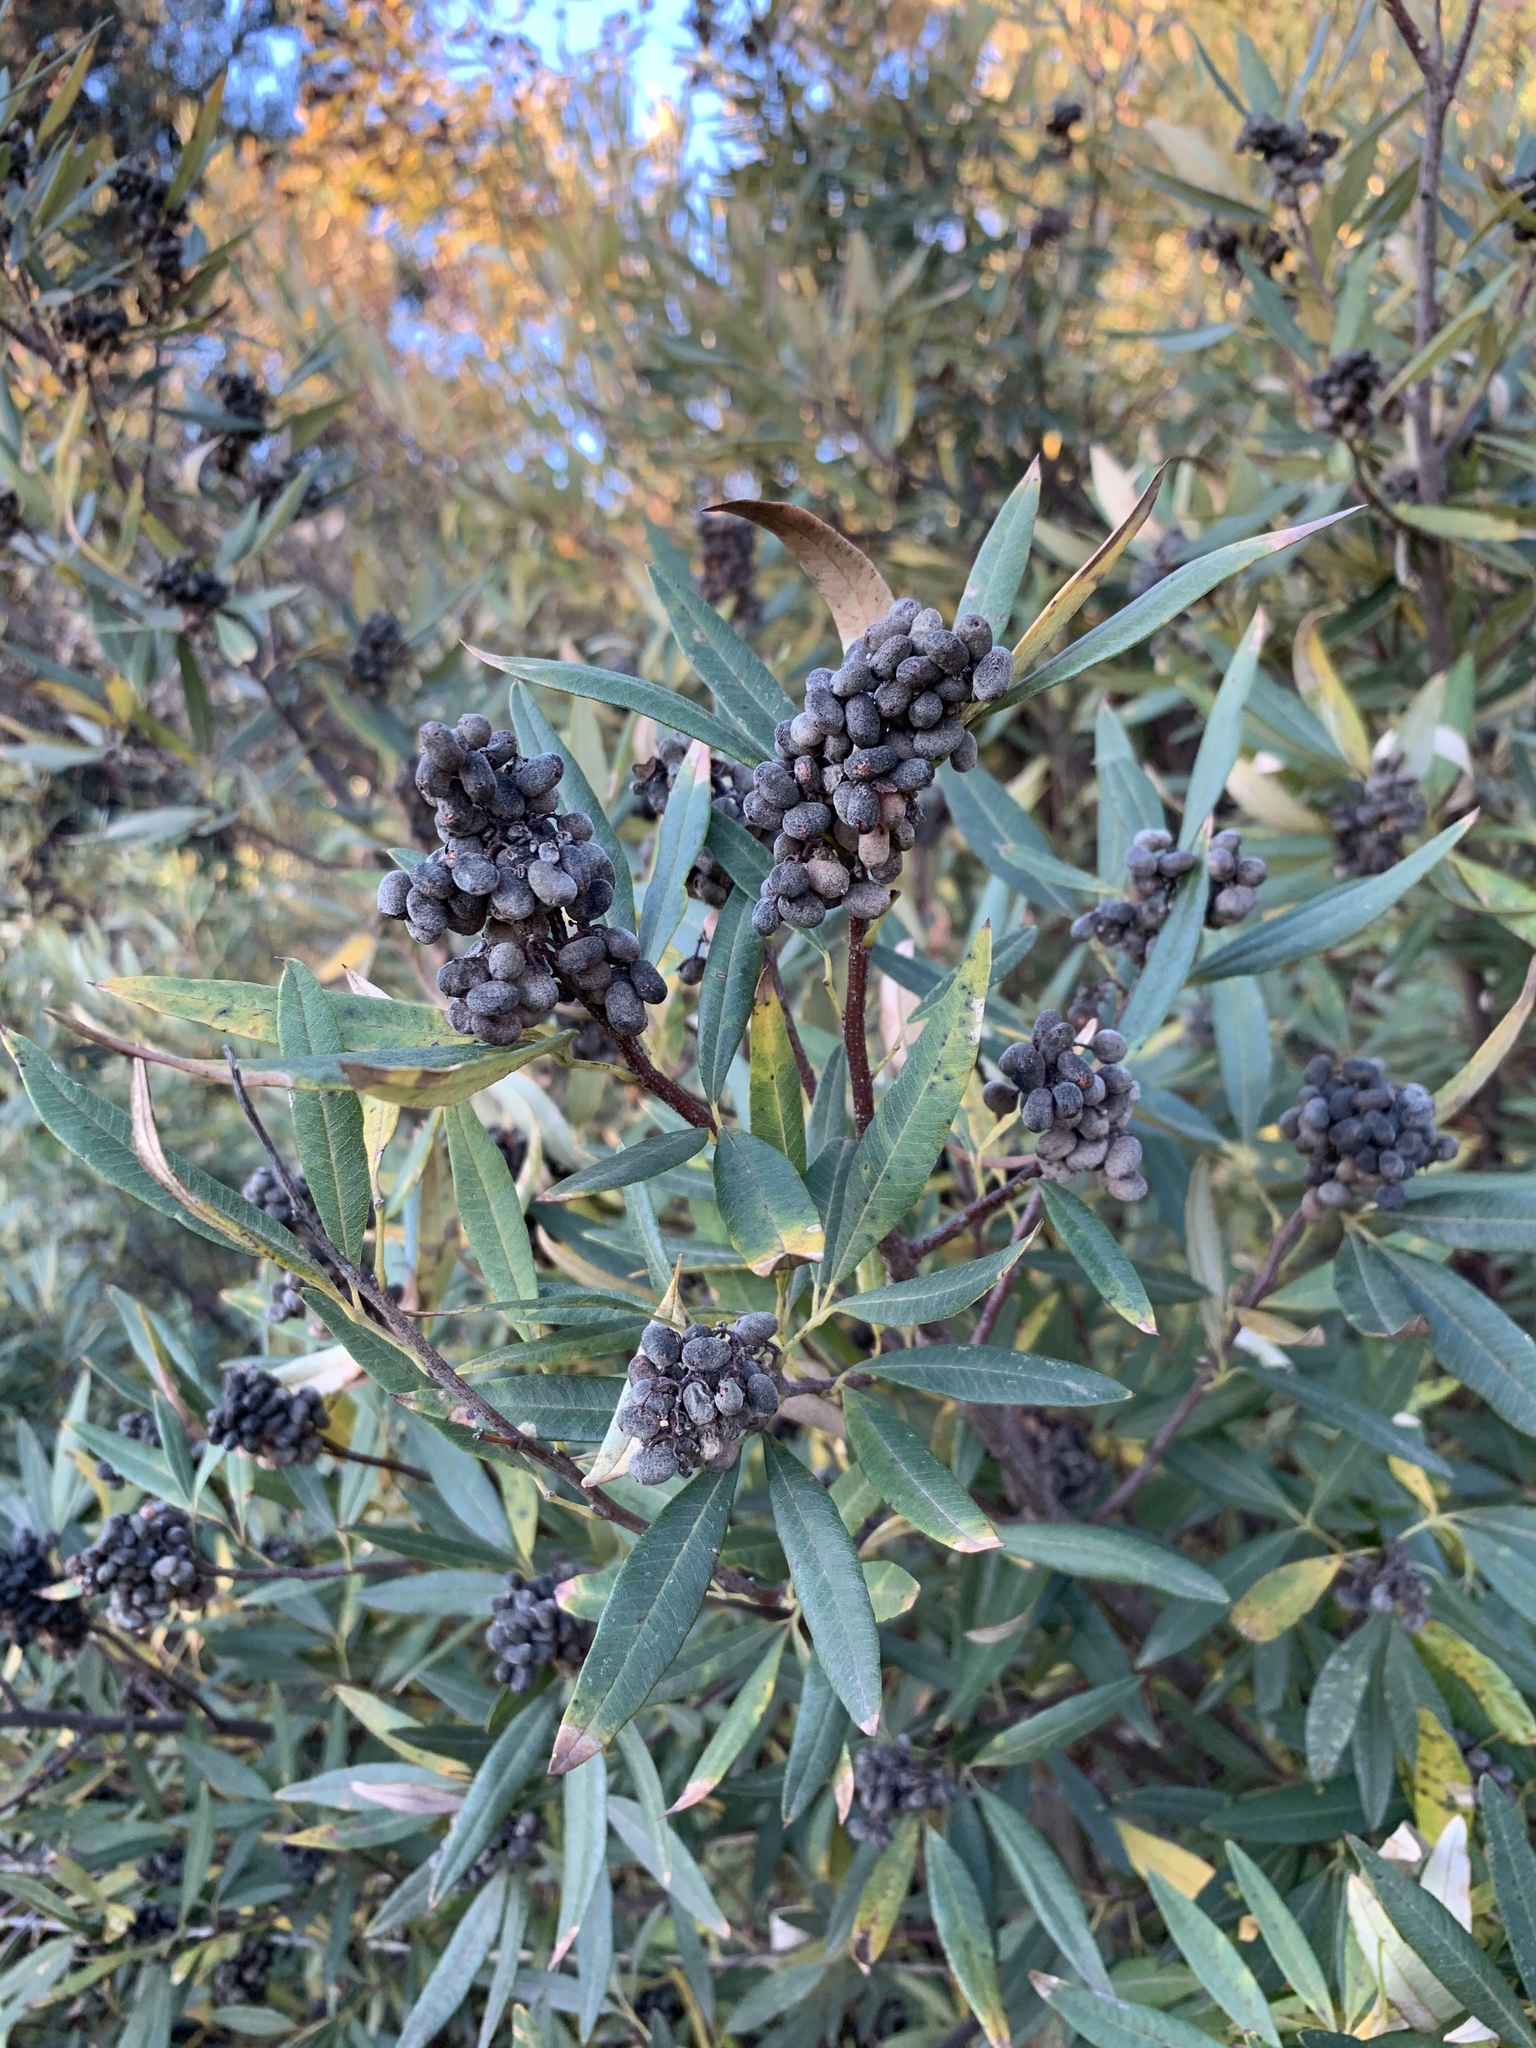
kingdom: Plantae
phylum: Tracheophyta
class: Magnoliopsida
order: Sapindales
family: Anacardiaceae
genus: Searsia
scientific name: Searsia angustifolia
